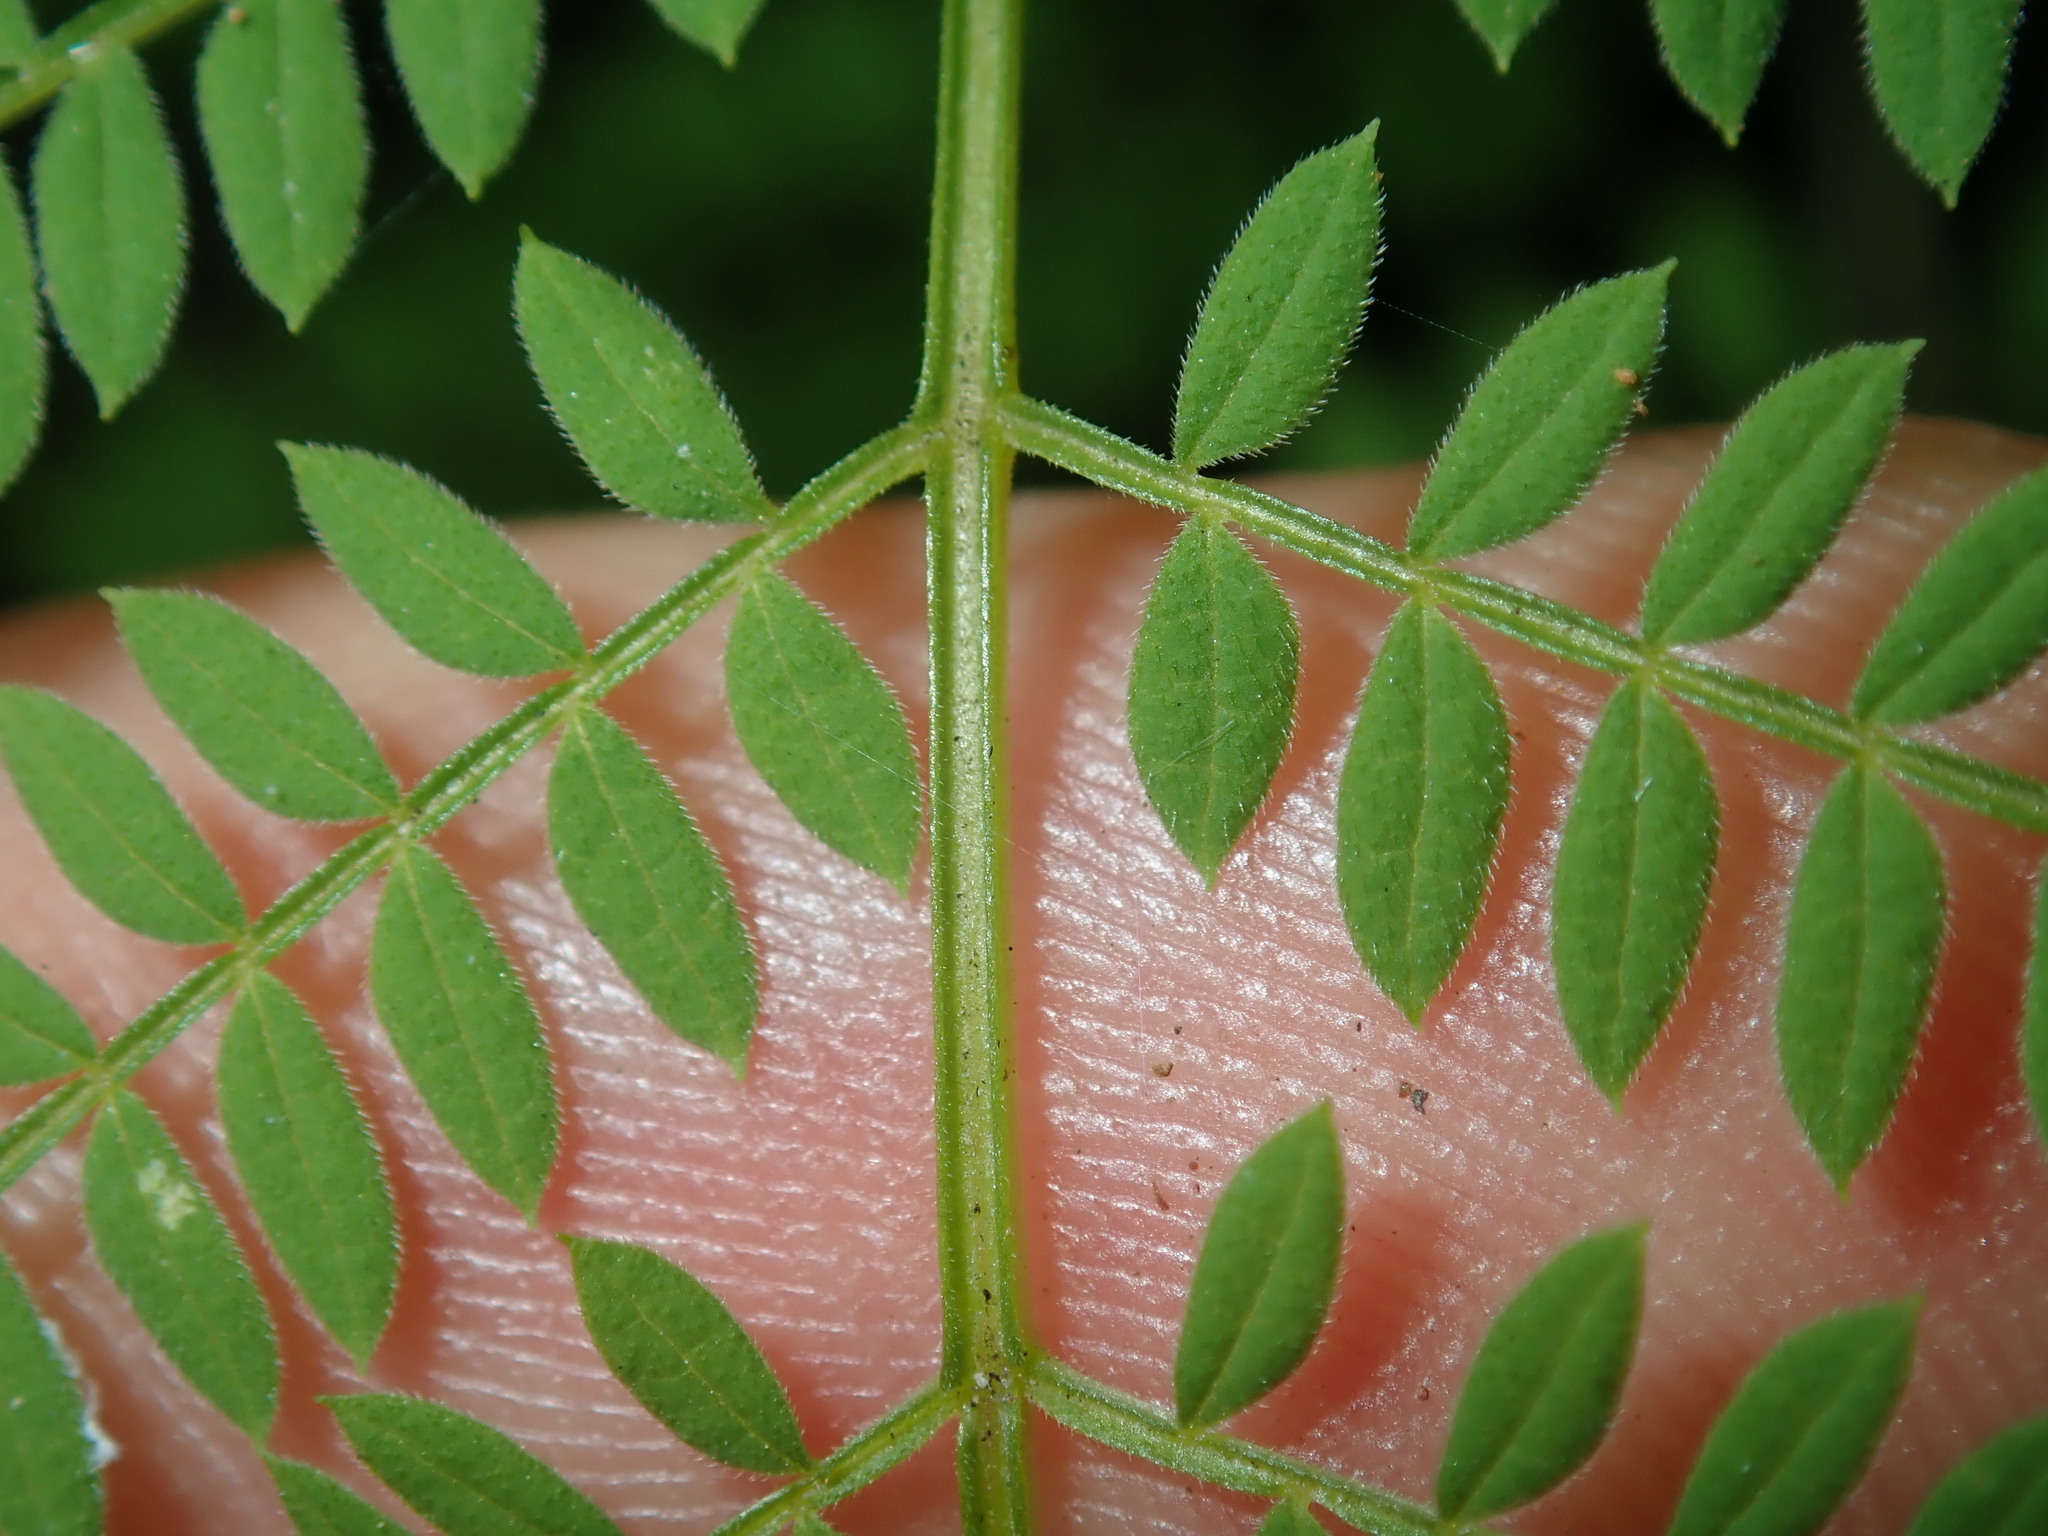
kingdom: Plantae
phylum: Tracheophyta
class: Magnoliopsida
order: Lamiales
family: Bignoniaceae
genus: Jacaranda
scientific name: Jacaranda mimosifolia
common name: Black poui
